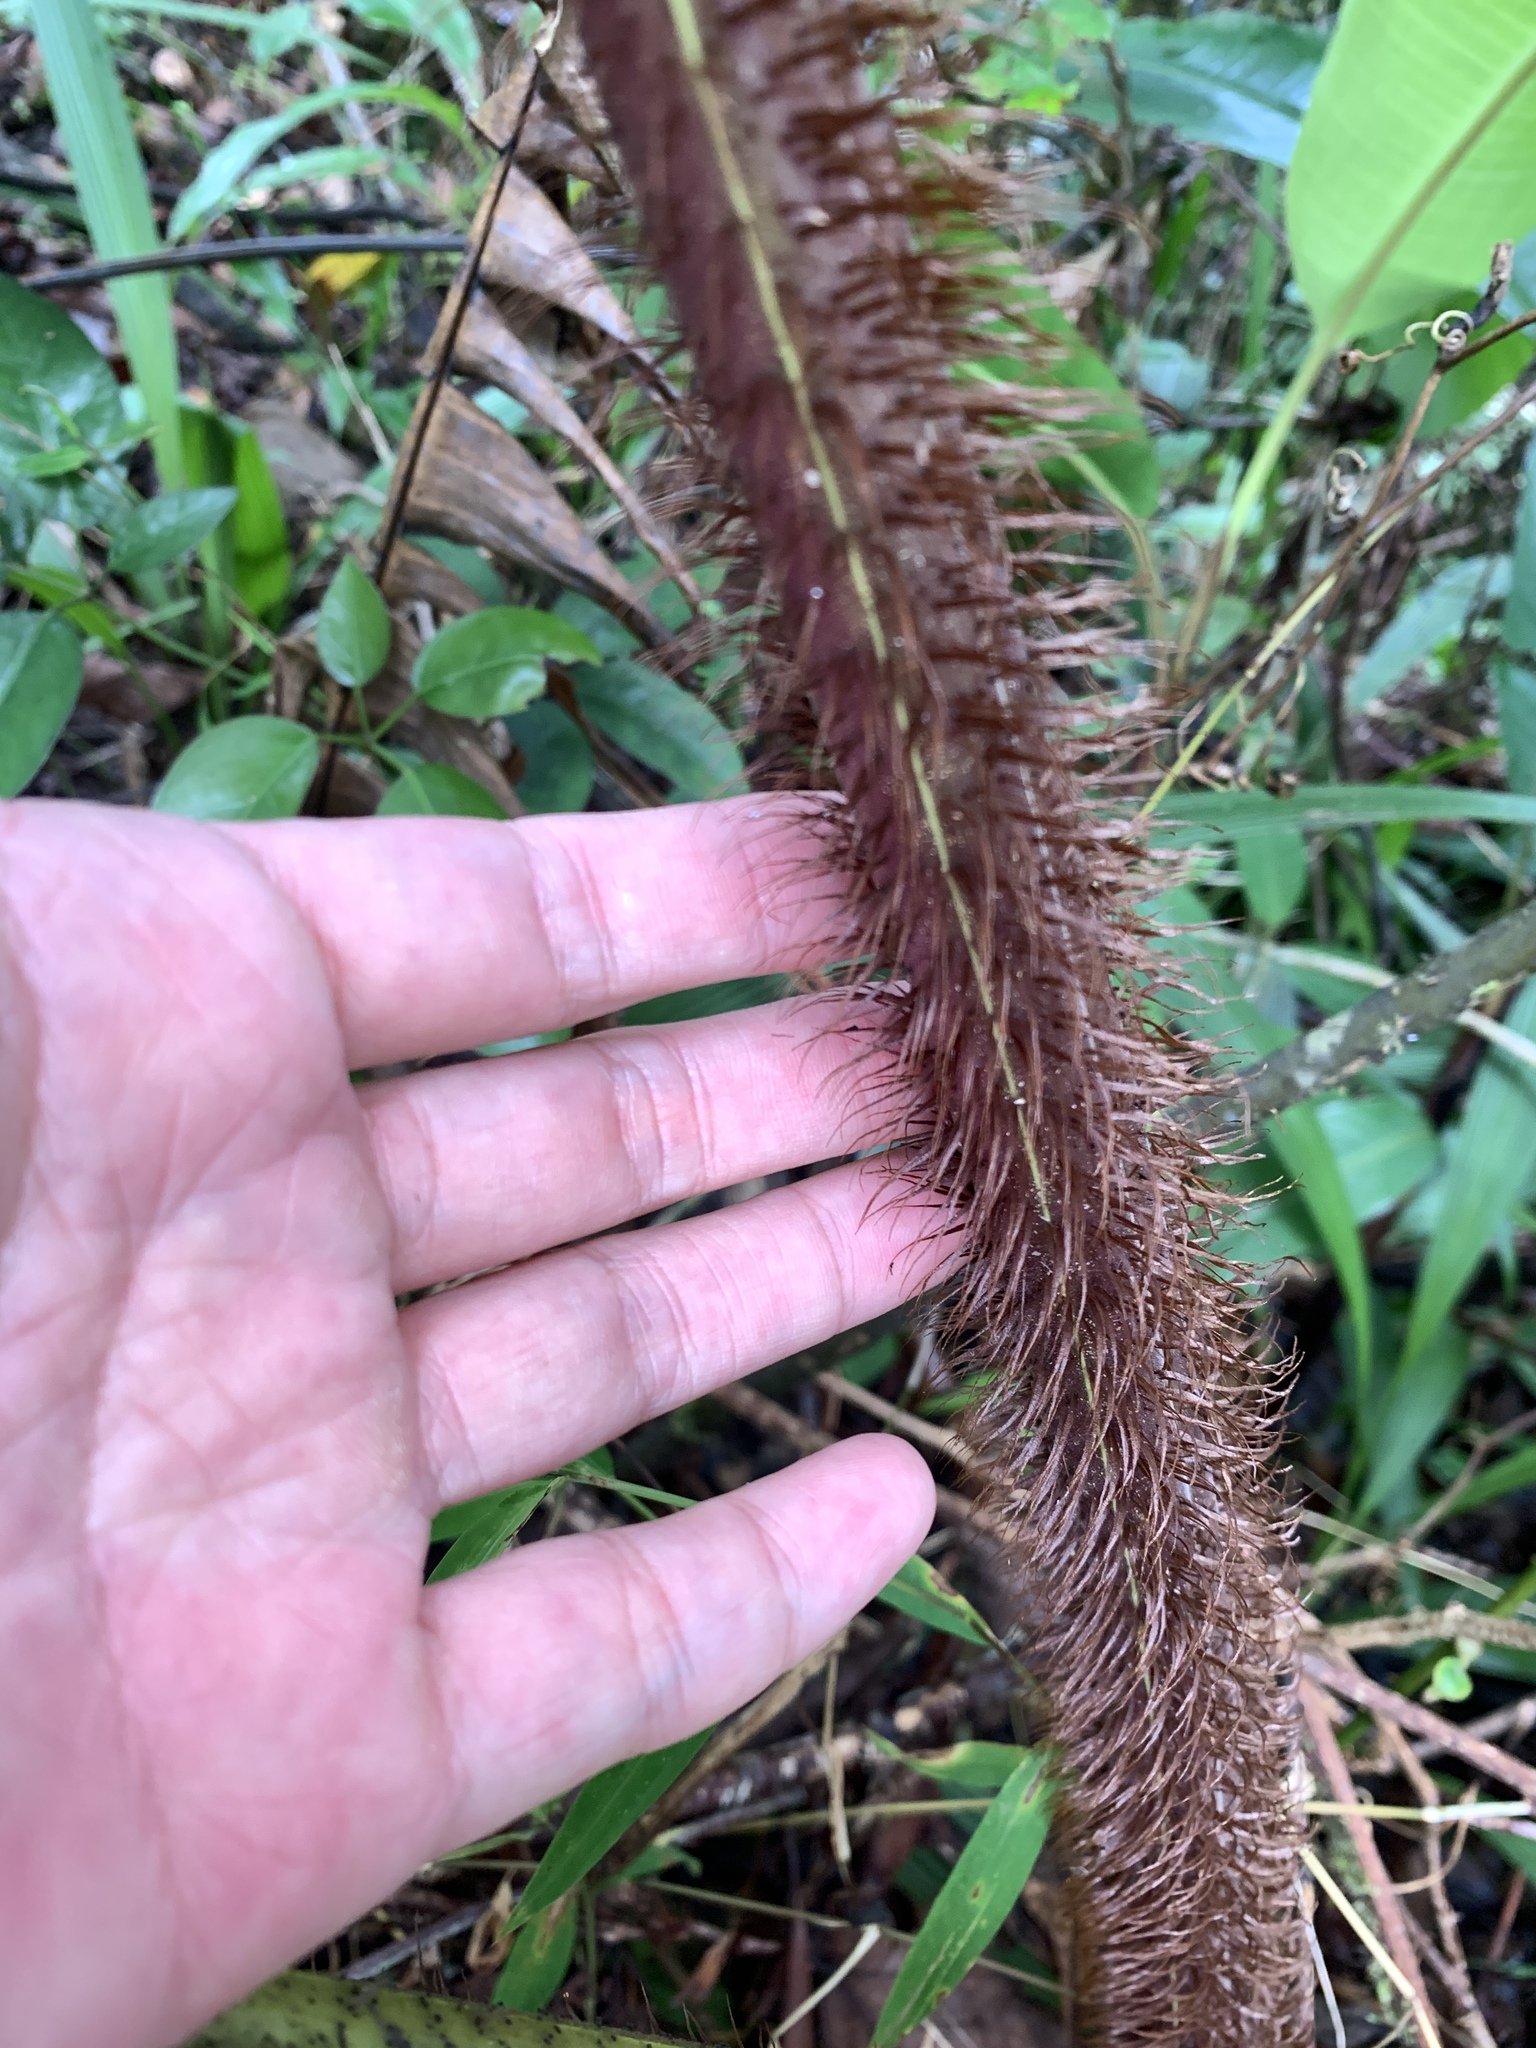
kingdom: Plantae
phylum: Tracheophyta
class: Polypodiopsida
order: Polypodiales
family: Thelypteridaceae
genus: Chingia
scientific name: Chingia clavipilosa
